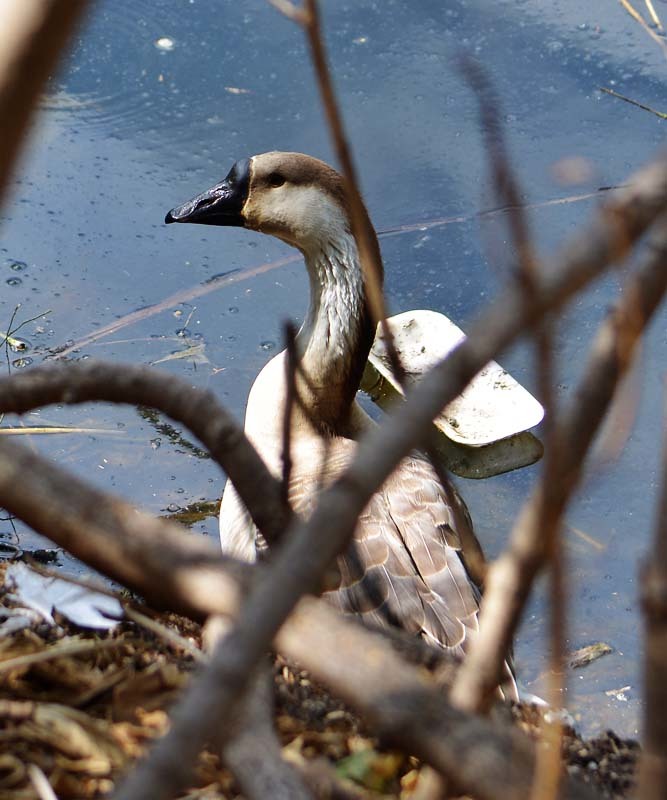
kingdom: Animalia
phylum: Chordata
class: Aves
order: Anseriformes
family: Anatidae
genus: Anser
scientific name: Anser cygnoides
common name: Swan goose
